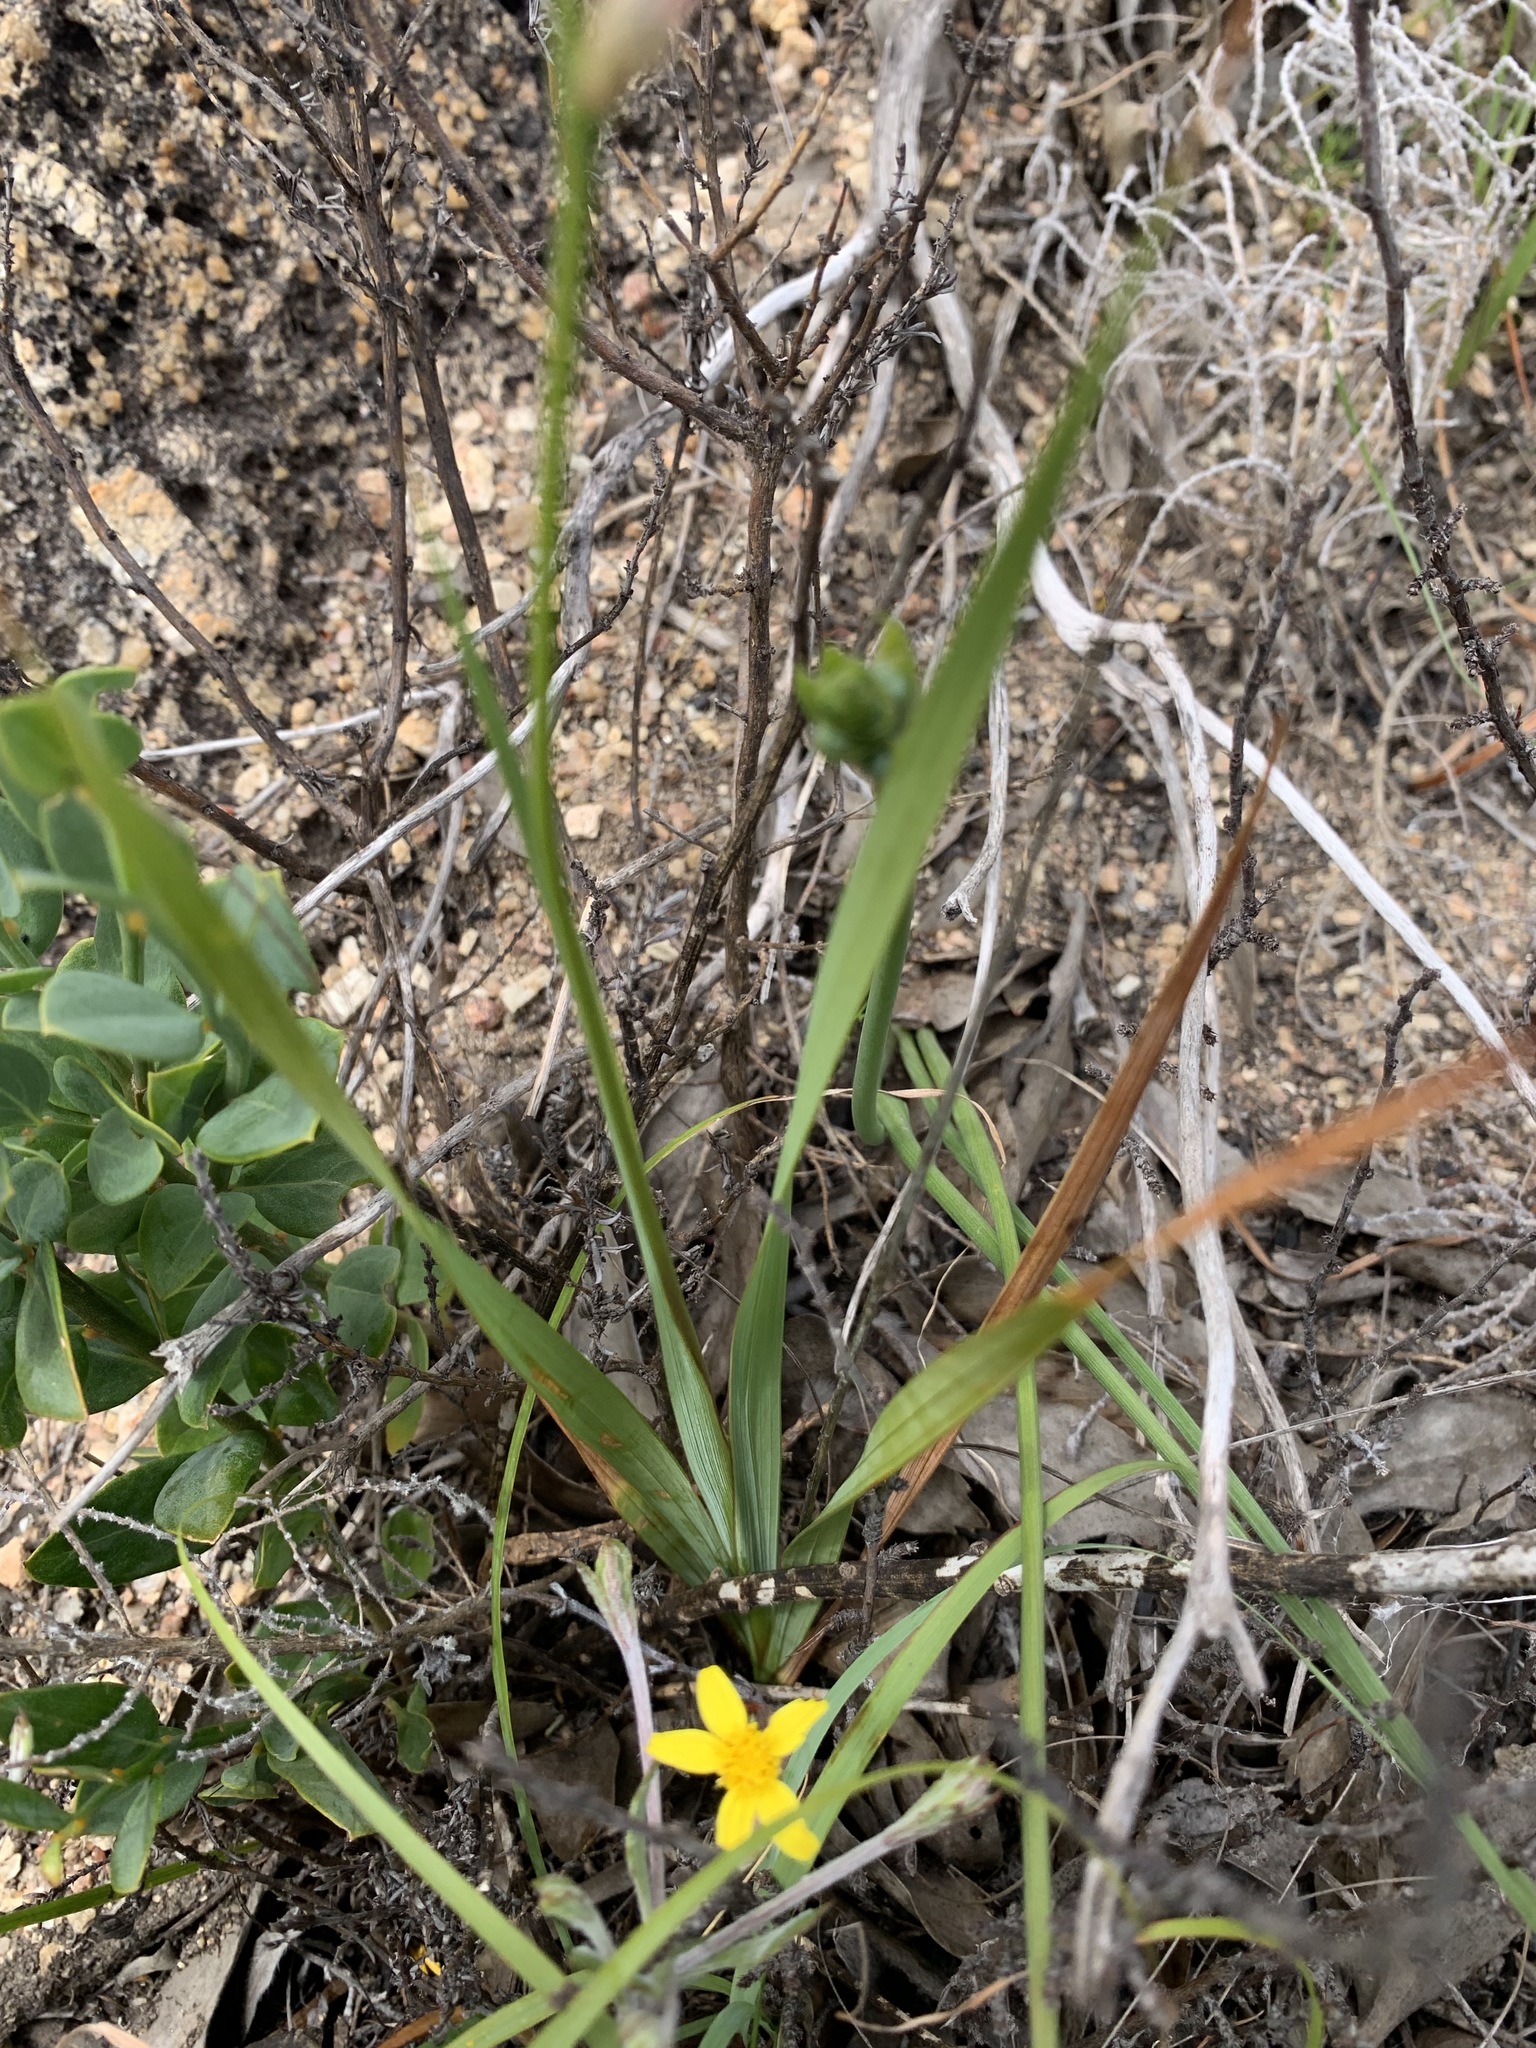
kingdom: Plantae
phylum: Tracheophyta
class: Liliopsida
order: Asparagales
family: Iridaceae
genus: Ixia
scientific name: Ixia dubia
